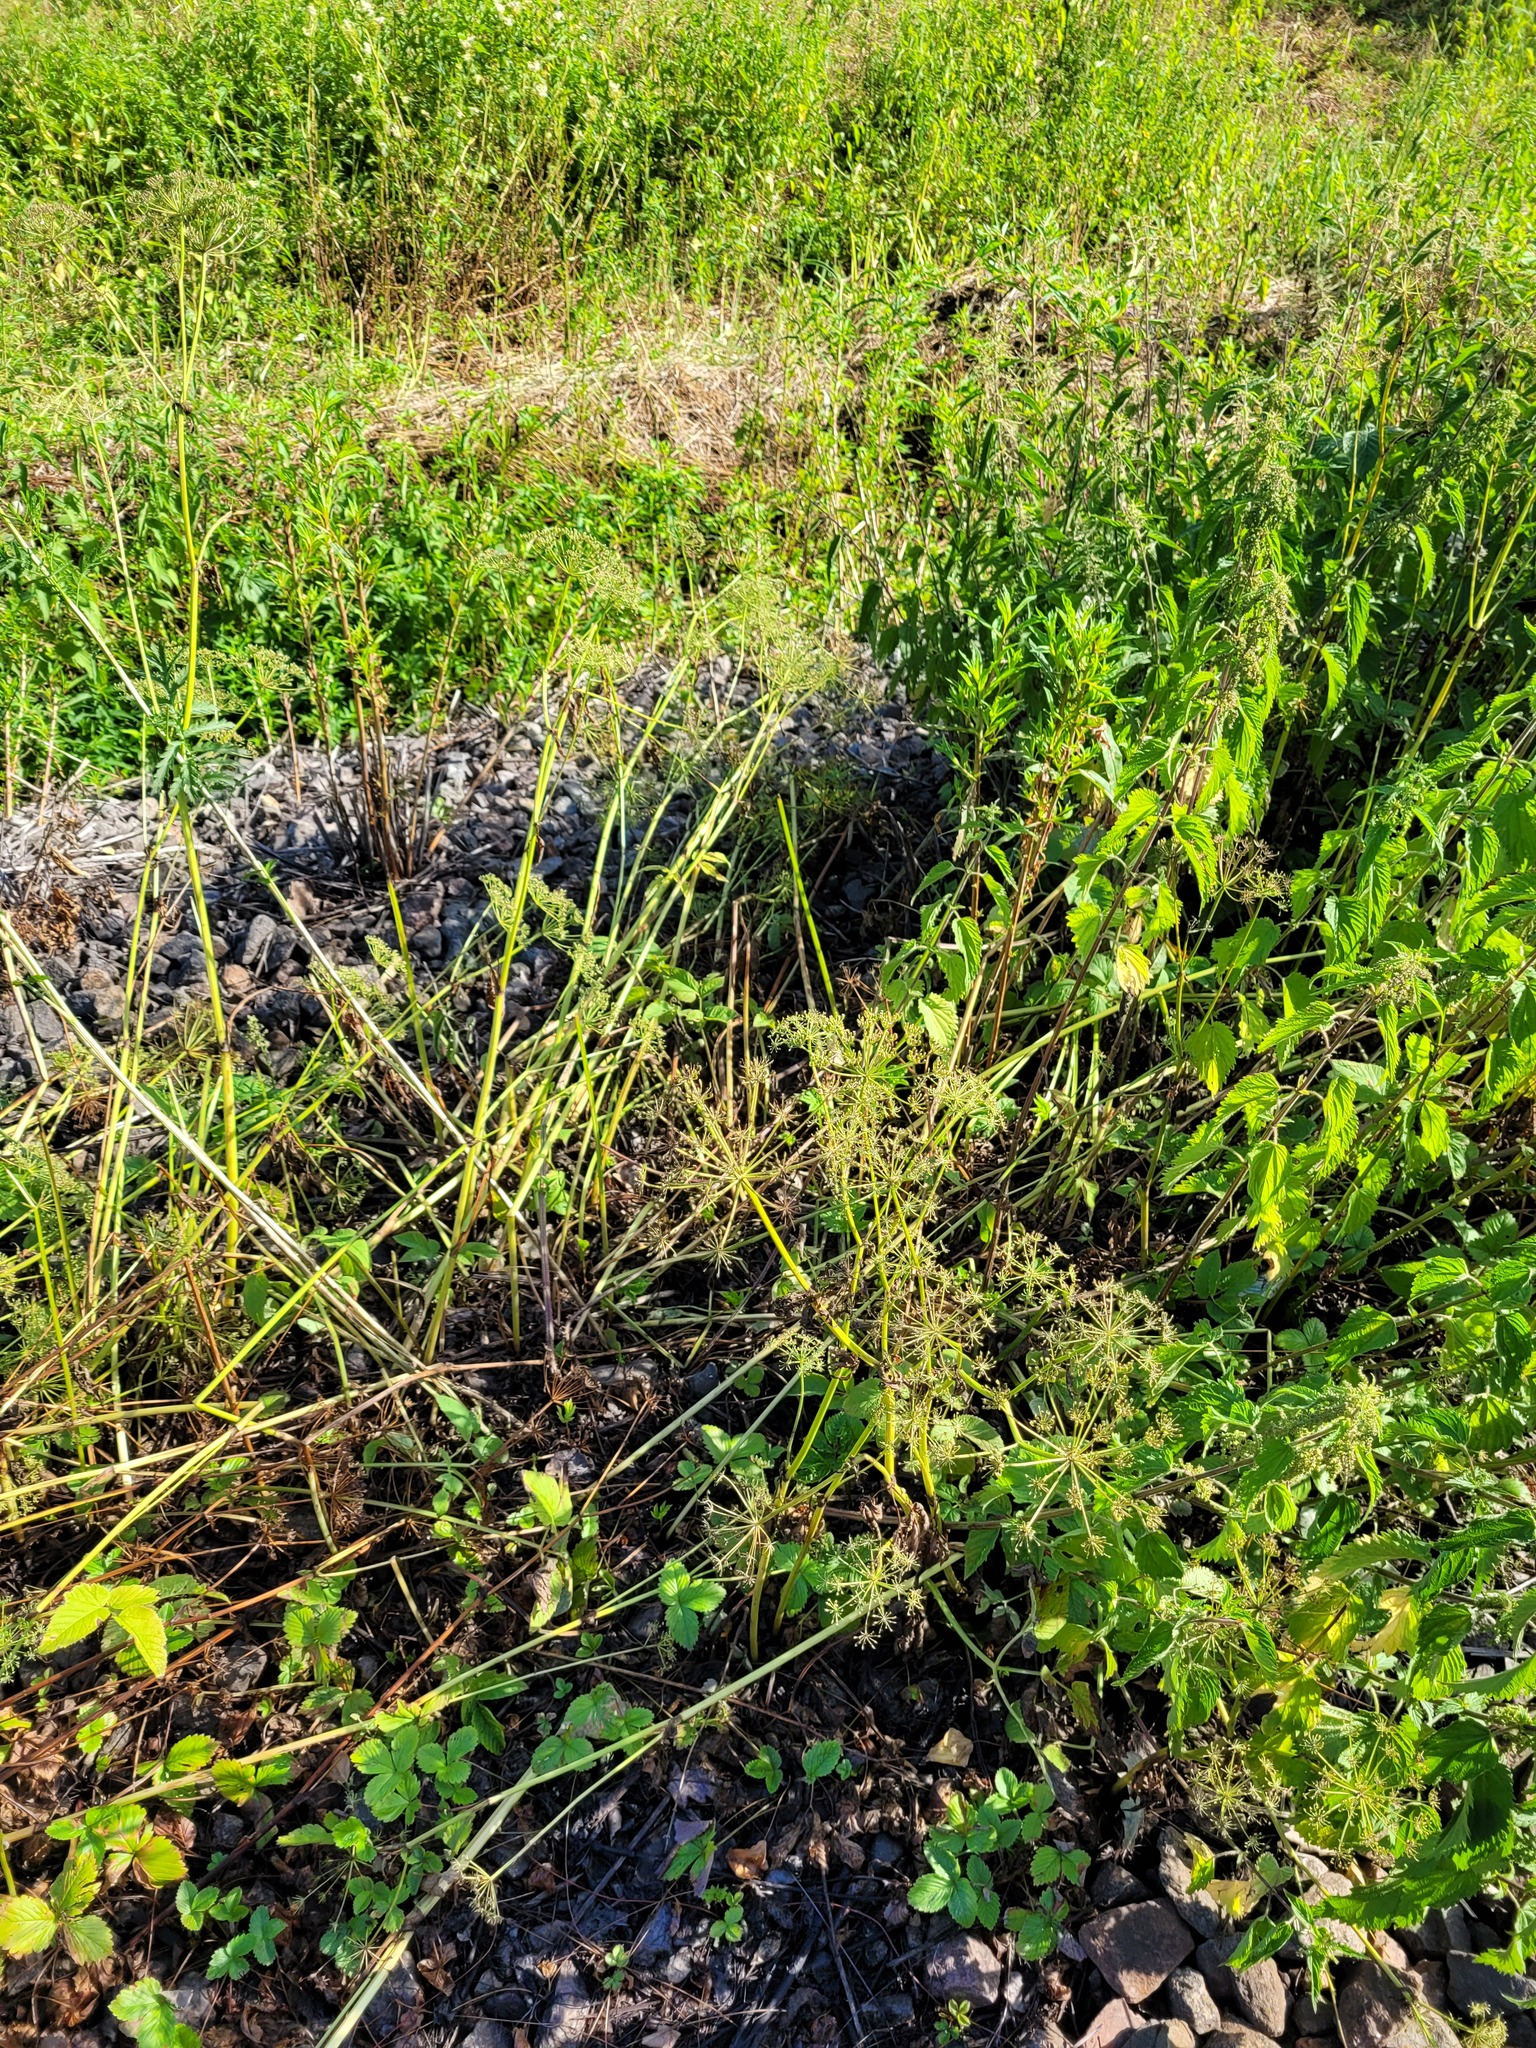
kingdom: Plantae
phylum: Tracheophyta
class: Magnoliopsida
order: Apiales
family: Apiaceae
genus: Aegopodium
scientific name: Aegopodium podagraria
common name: Ground-elder
